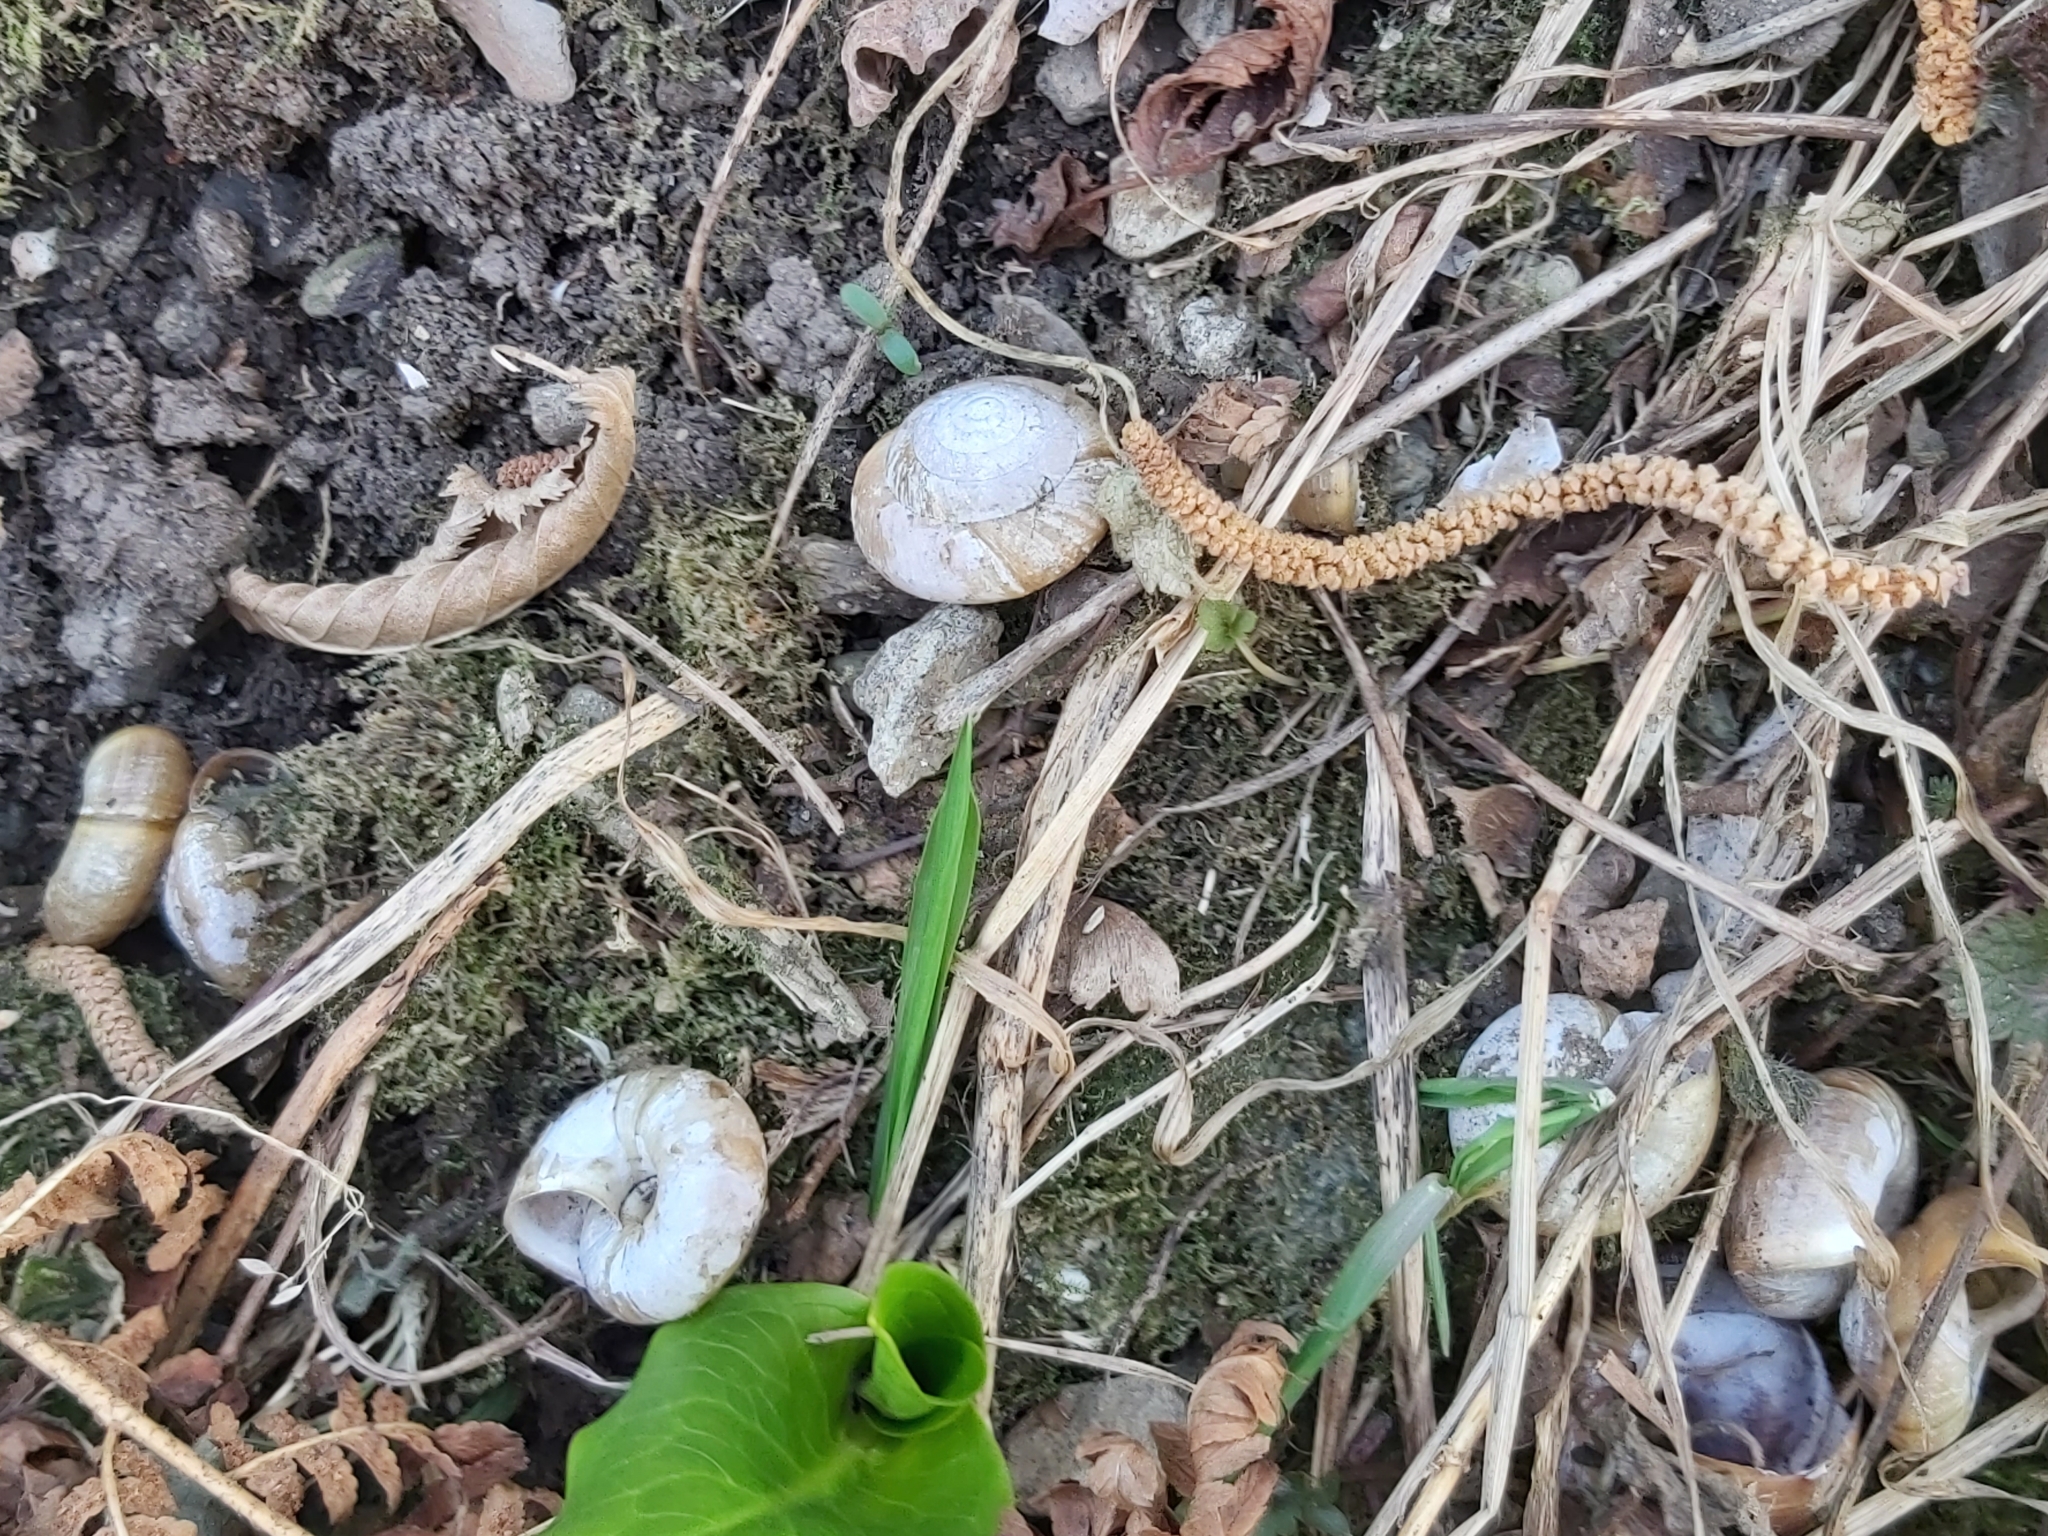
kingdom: Animalia
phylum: Mollusca
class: Gastropoda
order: Stylommatophora
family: Zonitidae
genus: Aegopis
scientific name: Aegopis verticillus
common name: Giant glass snail
